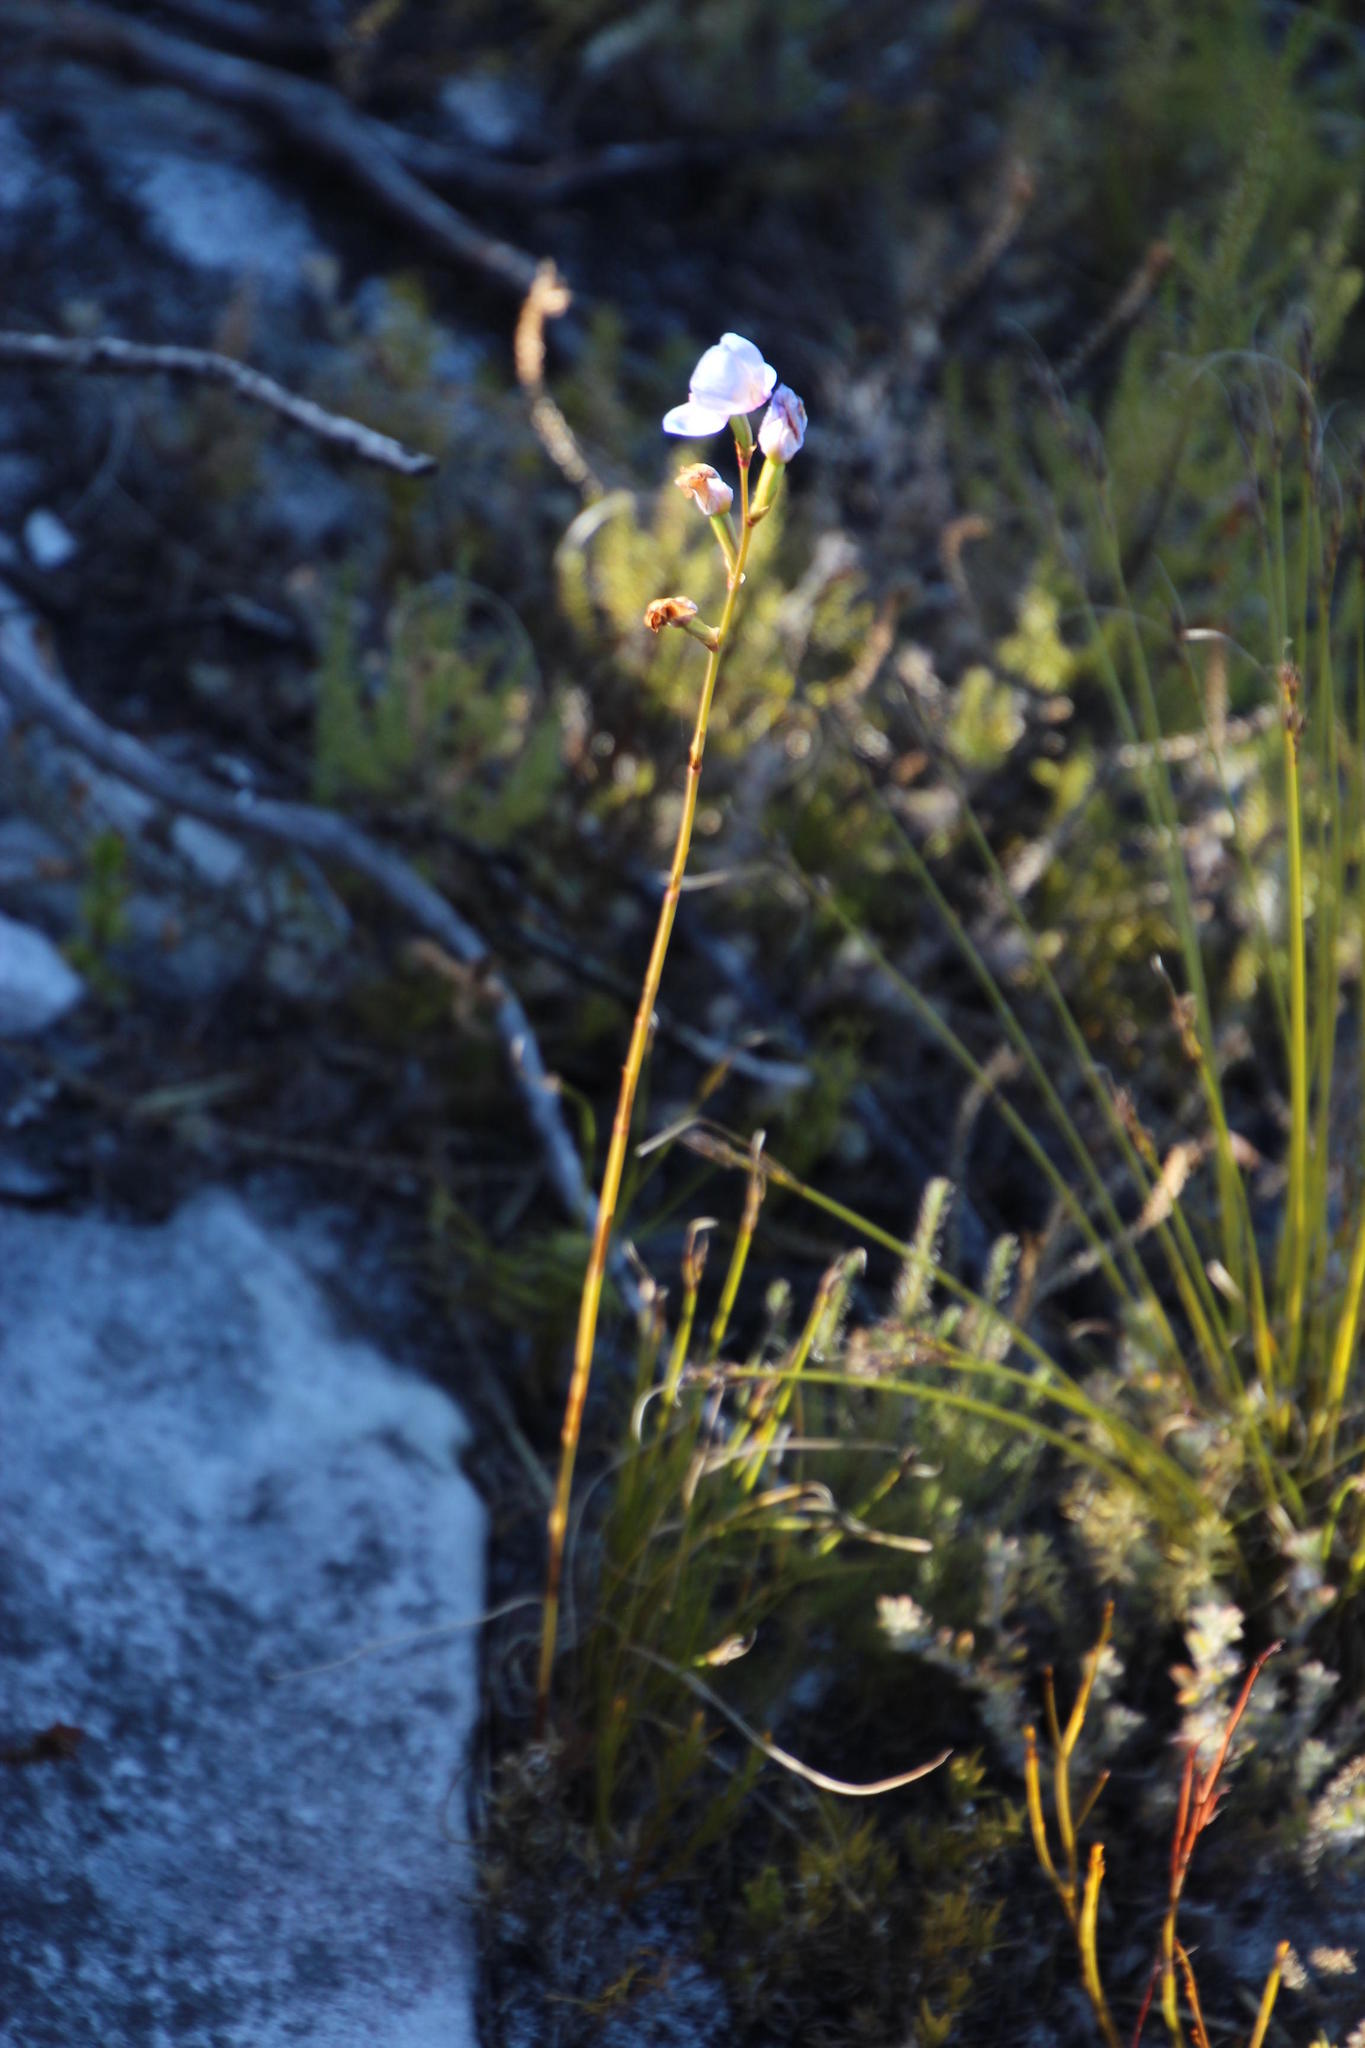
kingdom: Plantae
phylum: Tracheophyta
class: Liliopsida
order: Asparagales
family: Orchidaceae
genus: Disa
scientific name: Disa graminifolia
